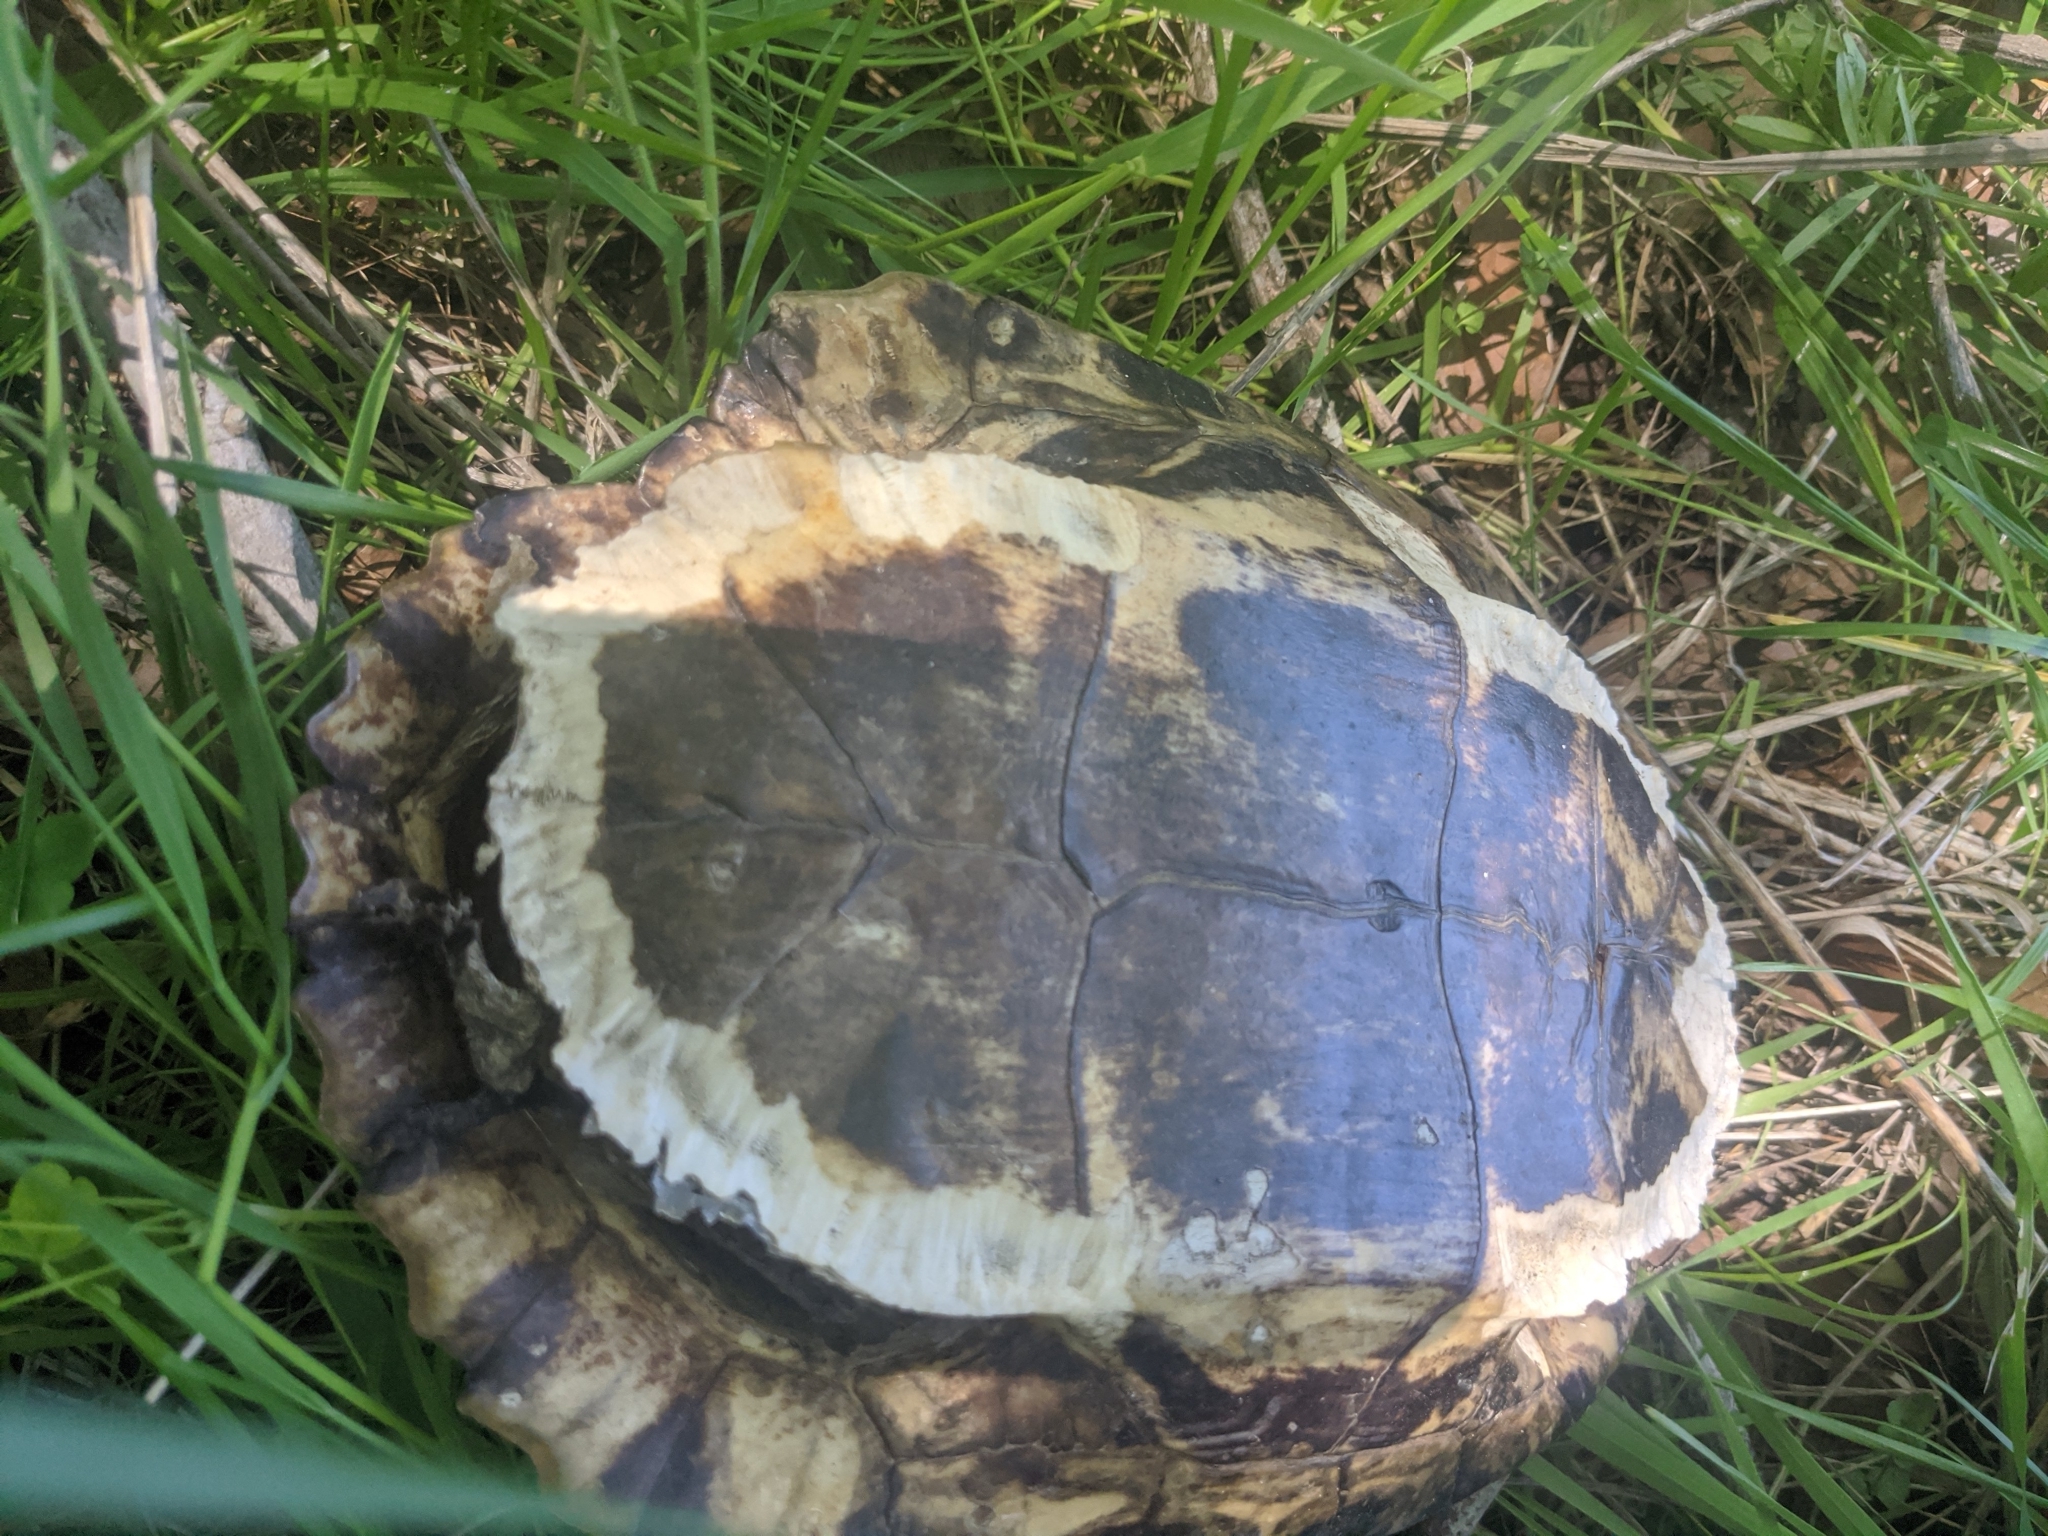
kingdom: Animalia
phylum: Chordata
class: Testudines
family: Emydidae
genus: Trachemys
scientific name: Trachemys scripta
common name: Slider
